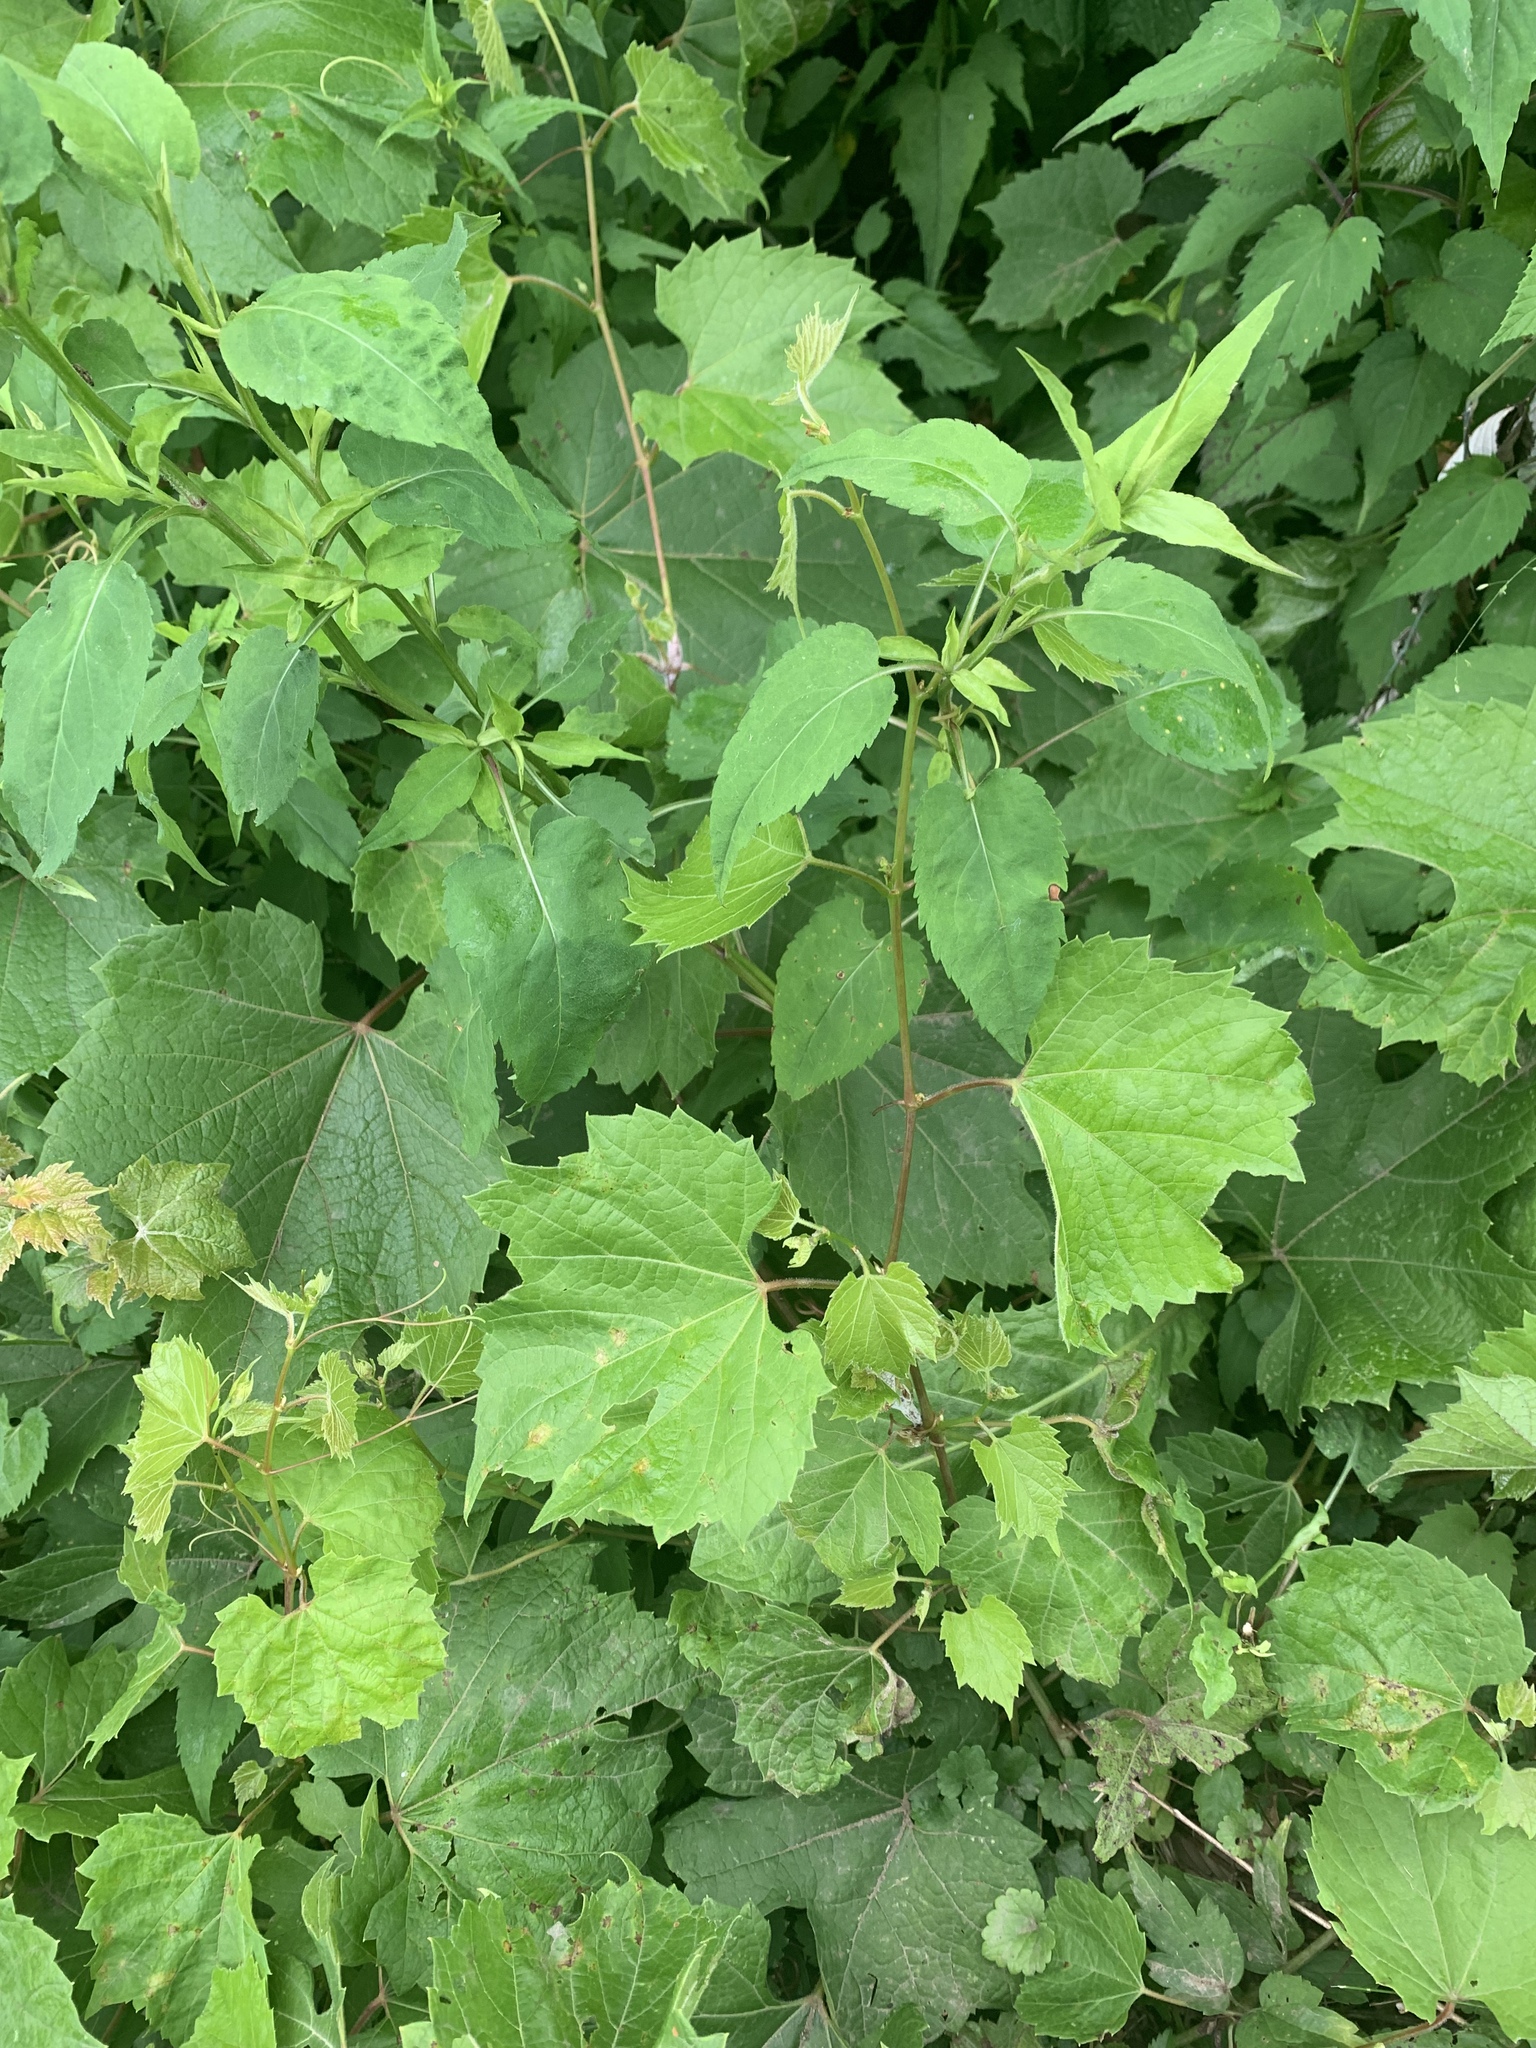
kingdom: Plantae
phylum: Tracheophyta
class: Magnoliopsida
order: Vitales
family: Vitaceae
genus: Vitis
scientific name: Vitis riparia
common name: Frost grape
